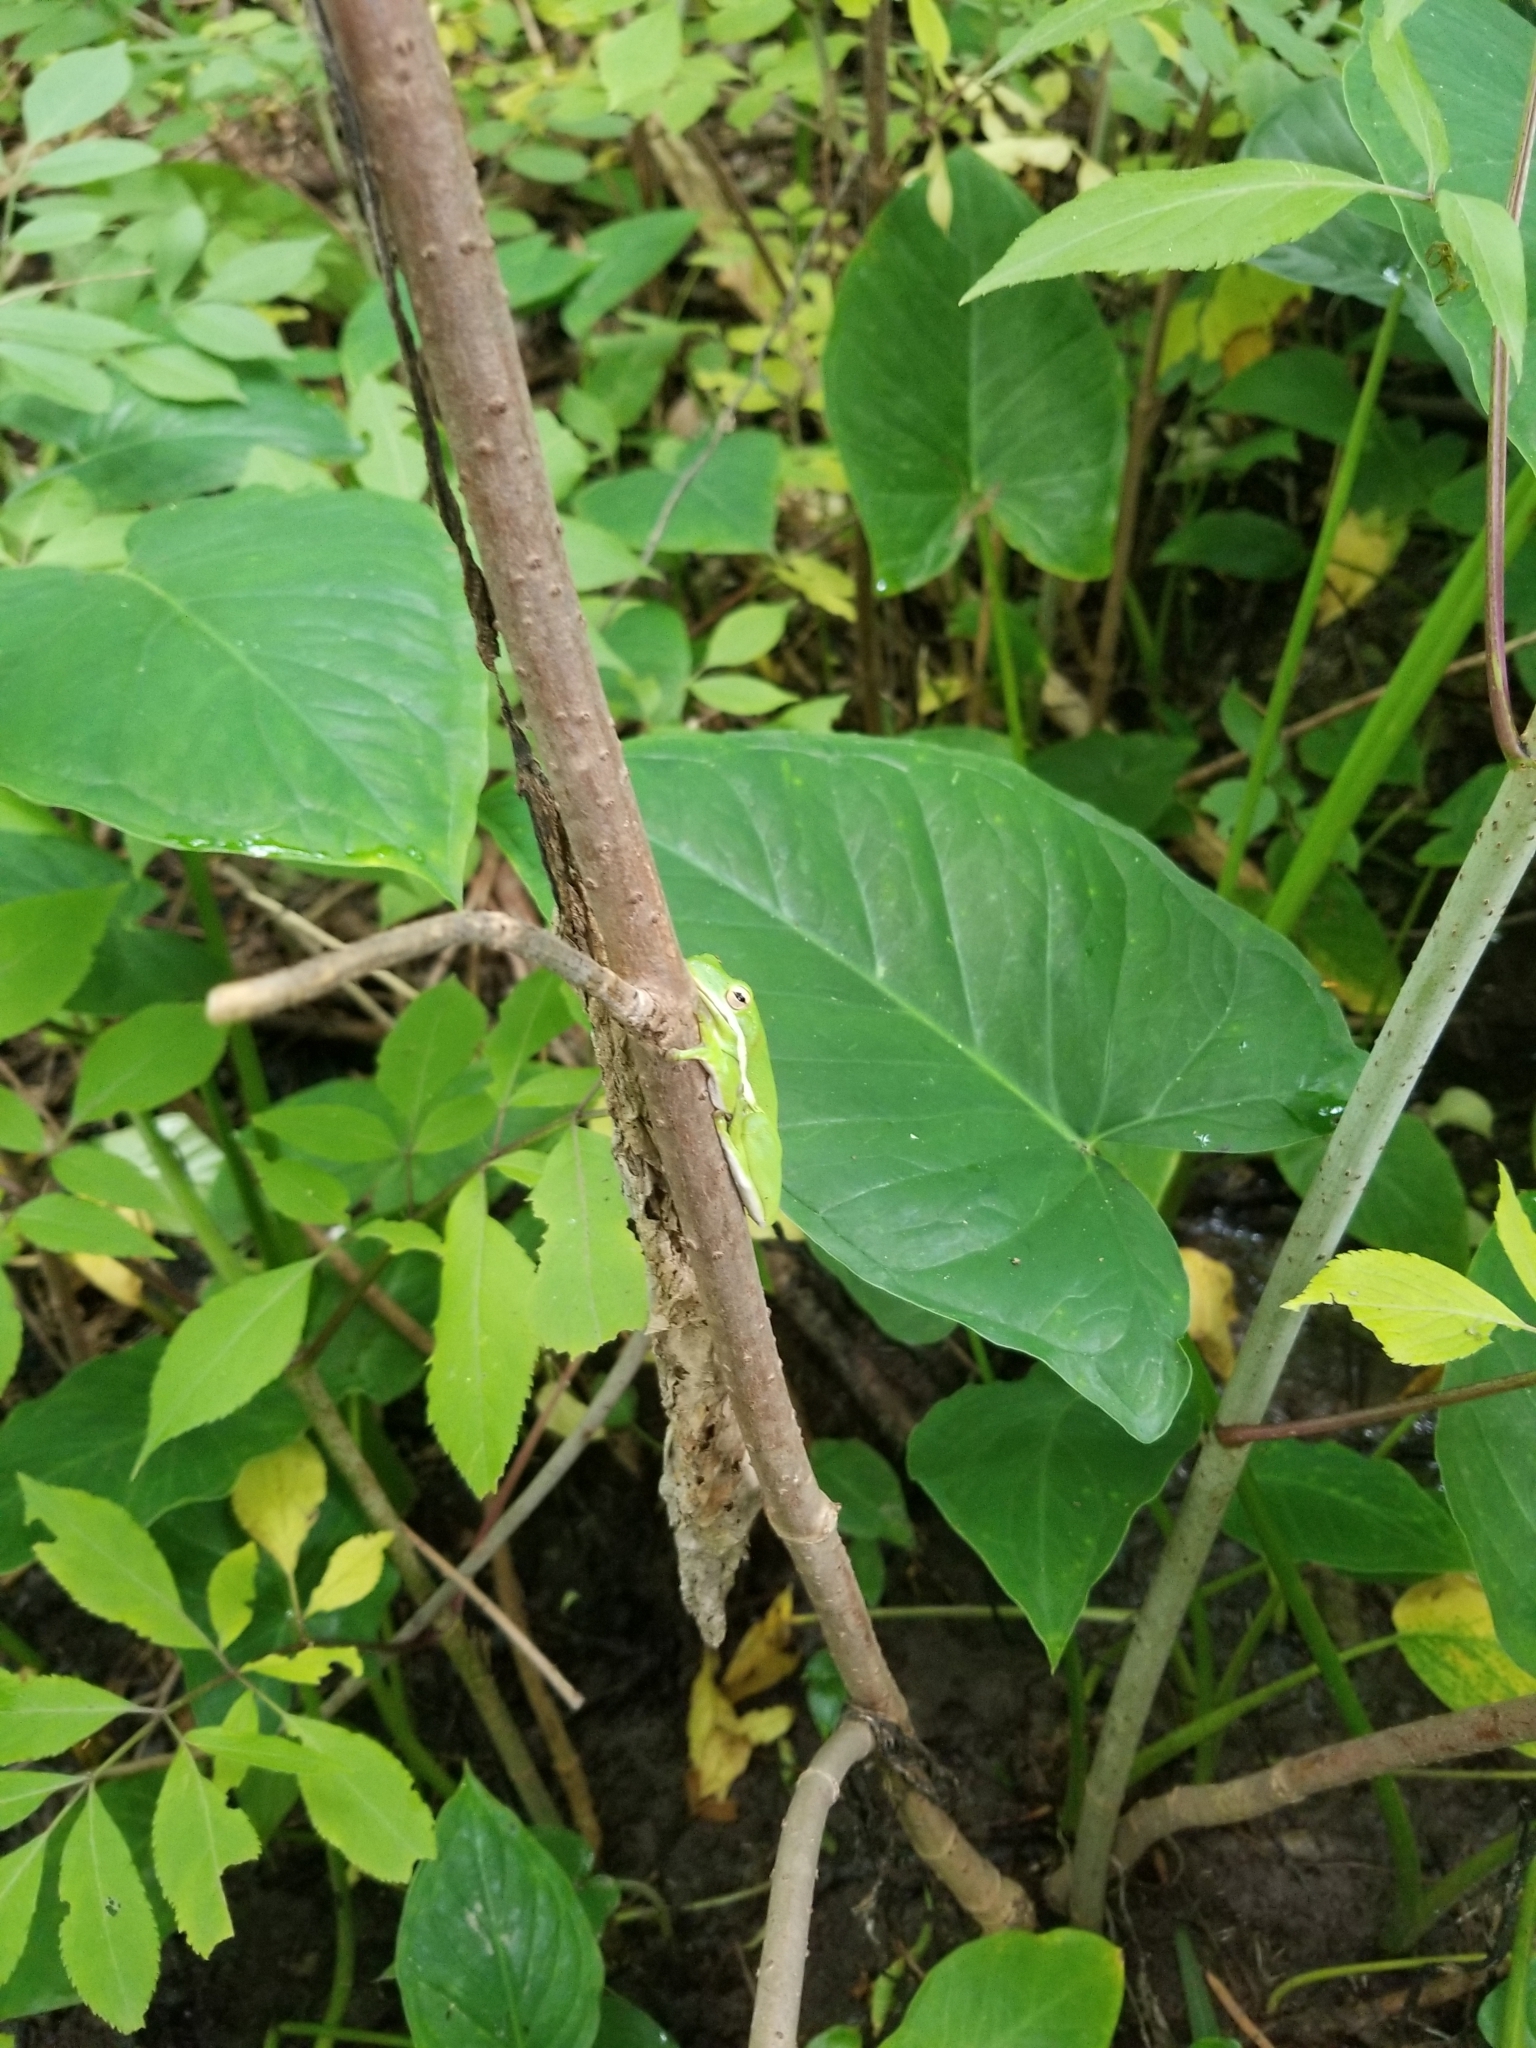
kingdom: Animalia
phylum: Chordata
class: Amphibia
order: Anura
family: Hylidae
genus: Dryophytes
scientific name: Dryophytes cinereus
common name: Green treefrog
